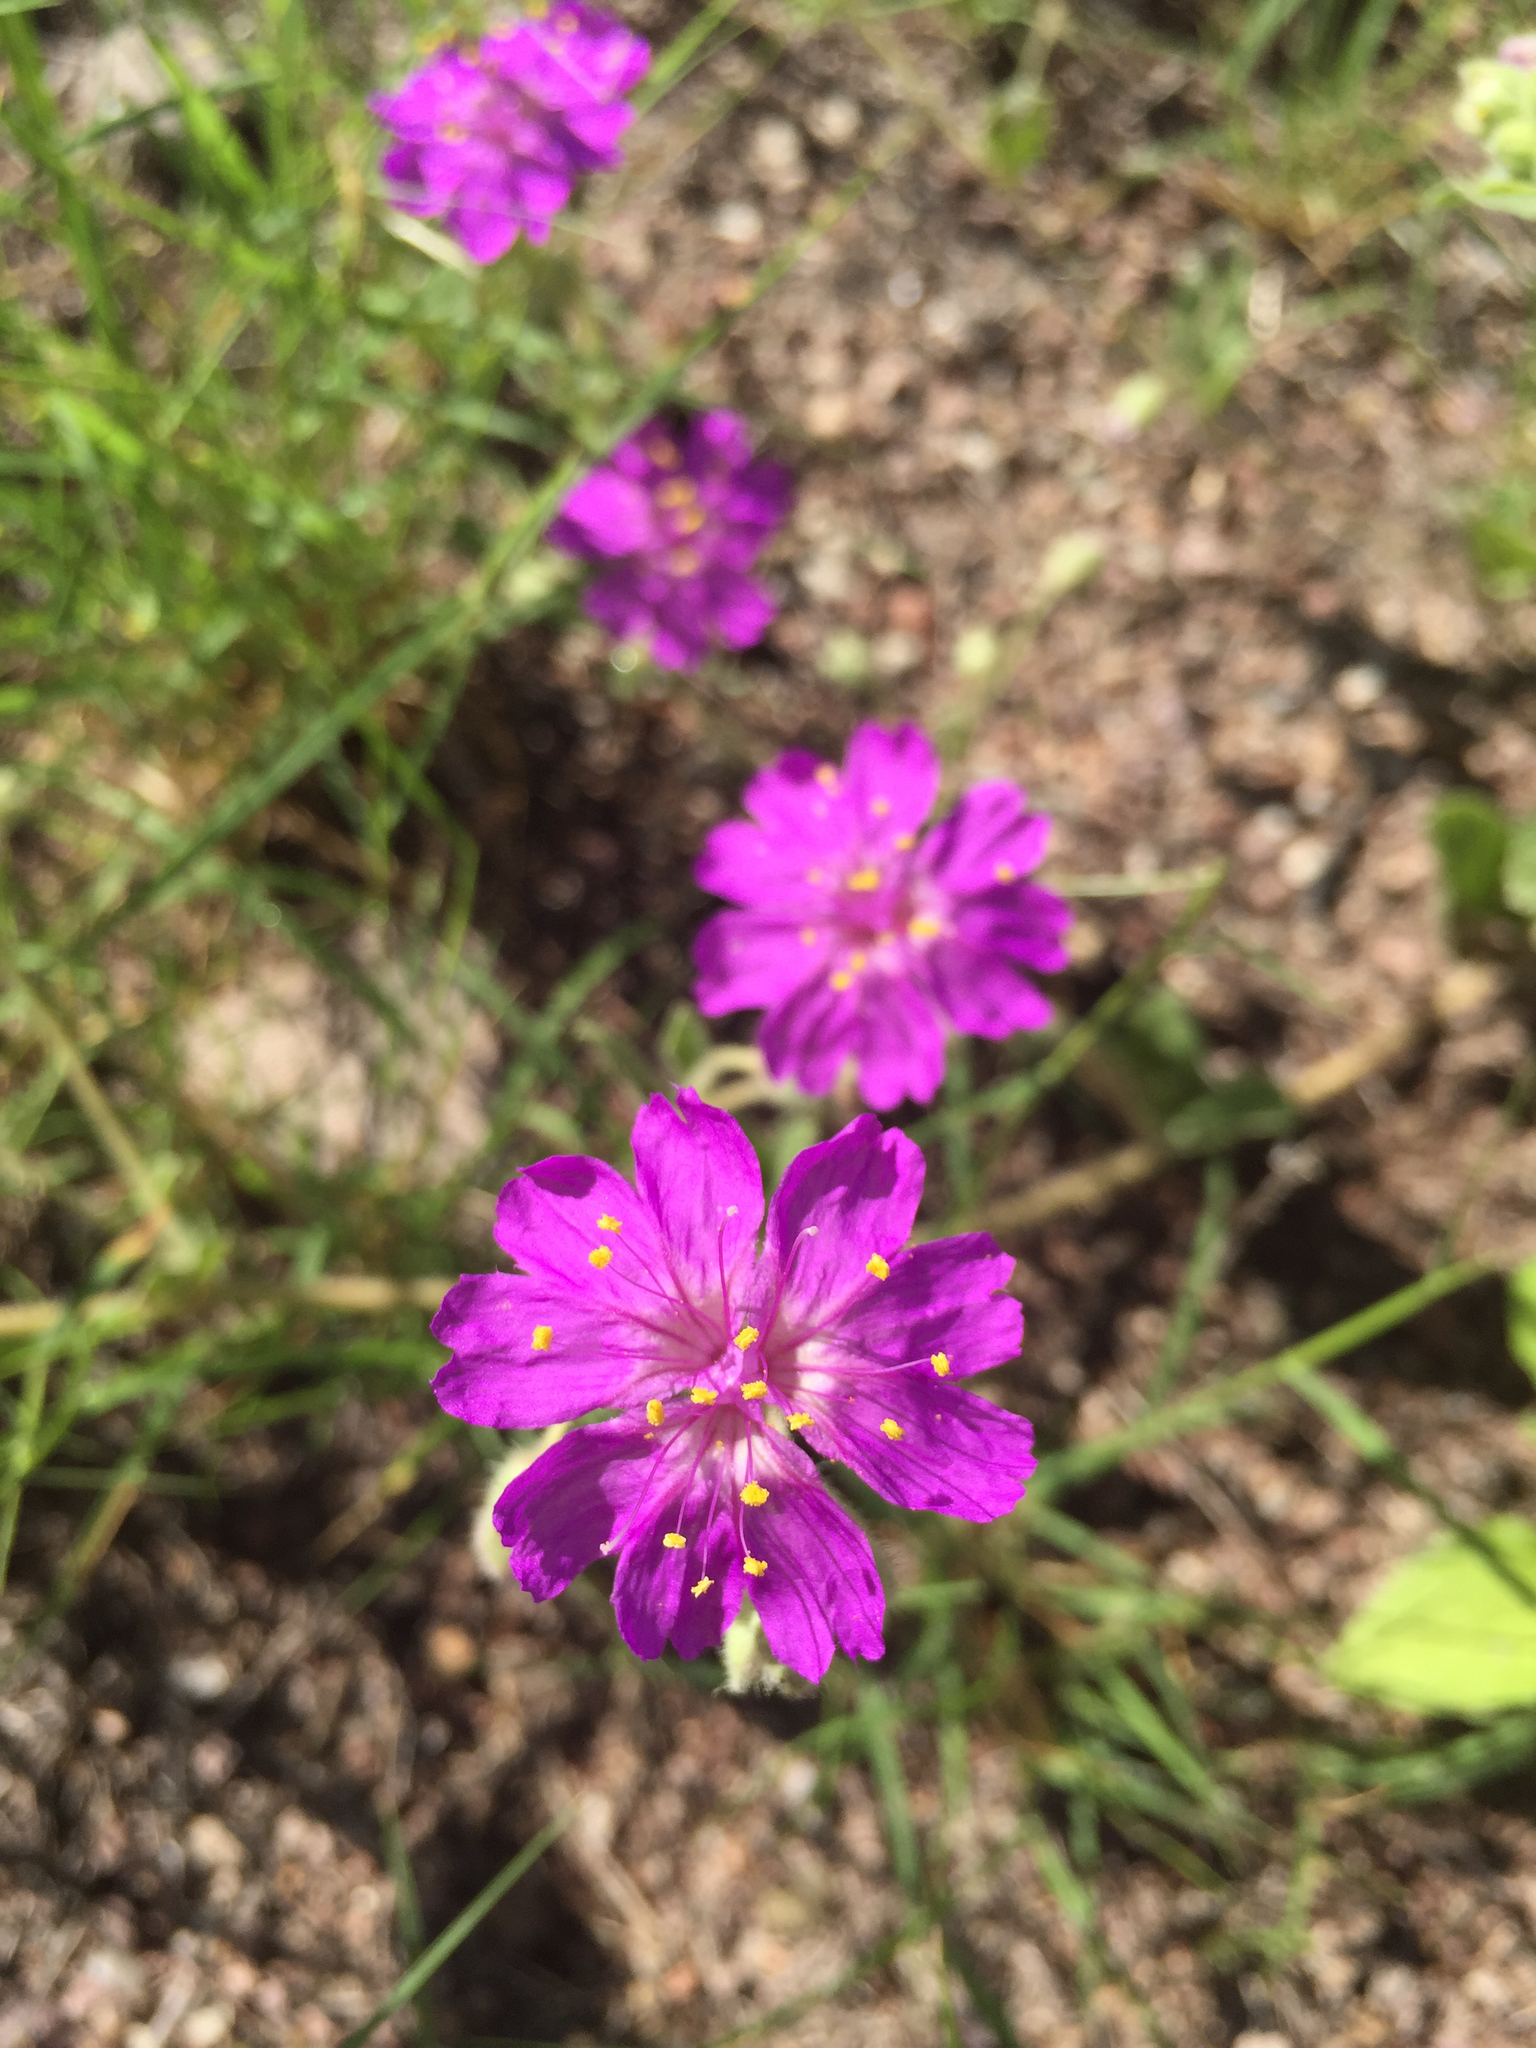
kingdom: Plantae
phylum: Tracheophyta
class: Magnoliopsida
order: Caryophyllales
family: Nyctaginaceae
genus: Allionia
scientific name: Allionia incarnata
